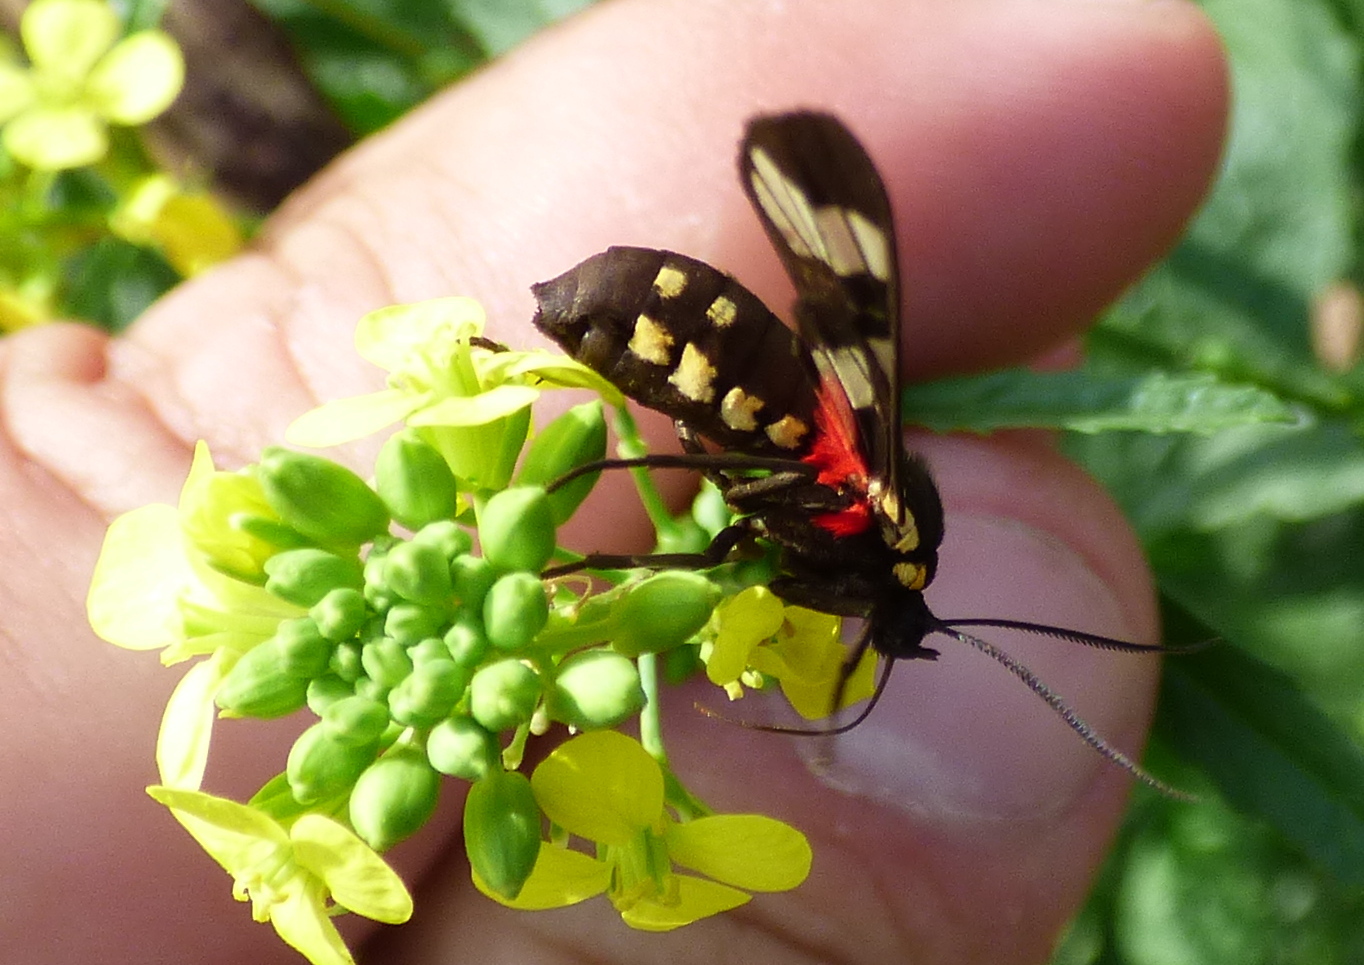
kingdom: Animalia
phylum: Arthropoda
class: Insecta
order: Lepidoptera
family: Erebidae
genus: Eurata
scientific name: Eurata hermione
